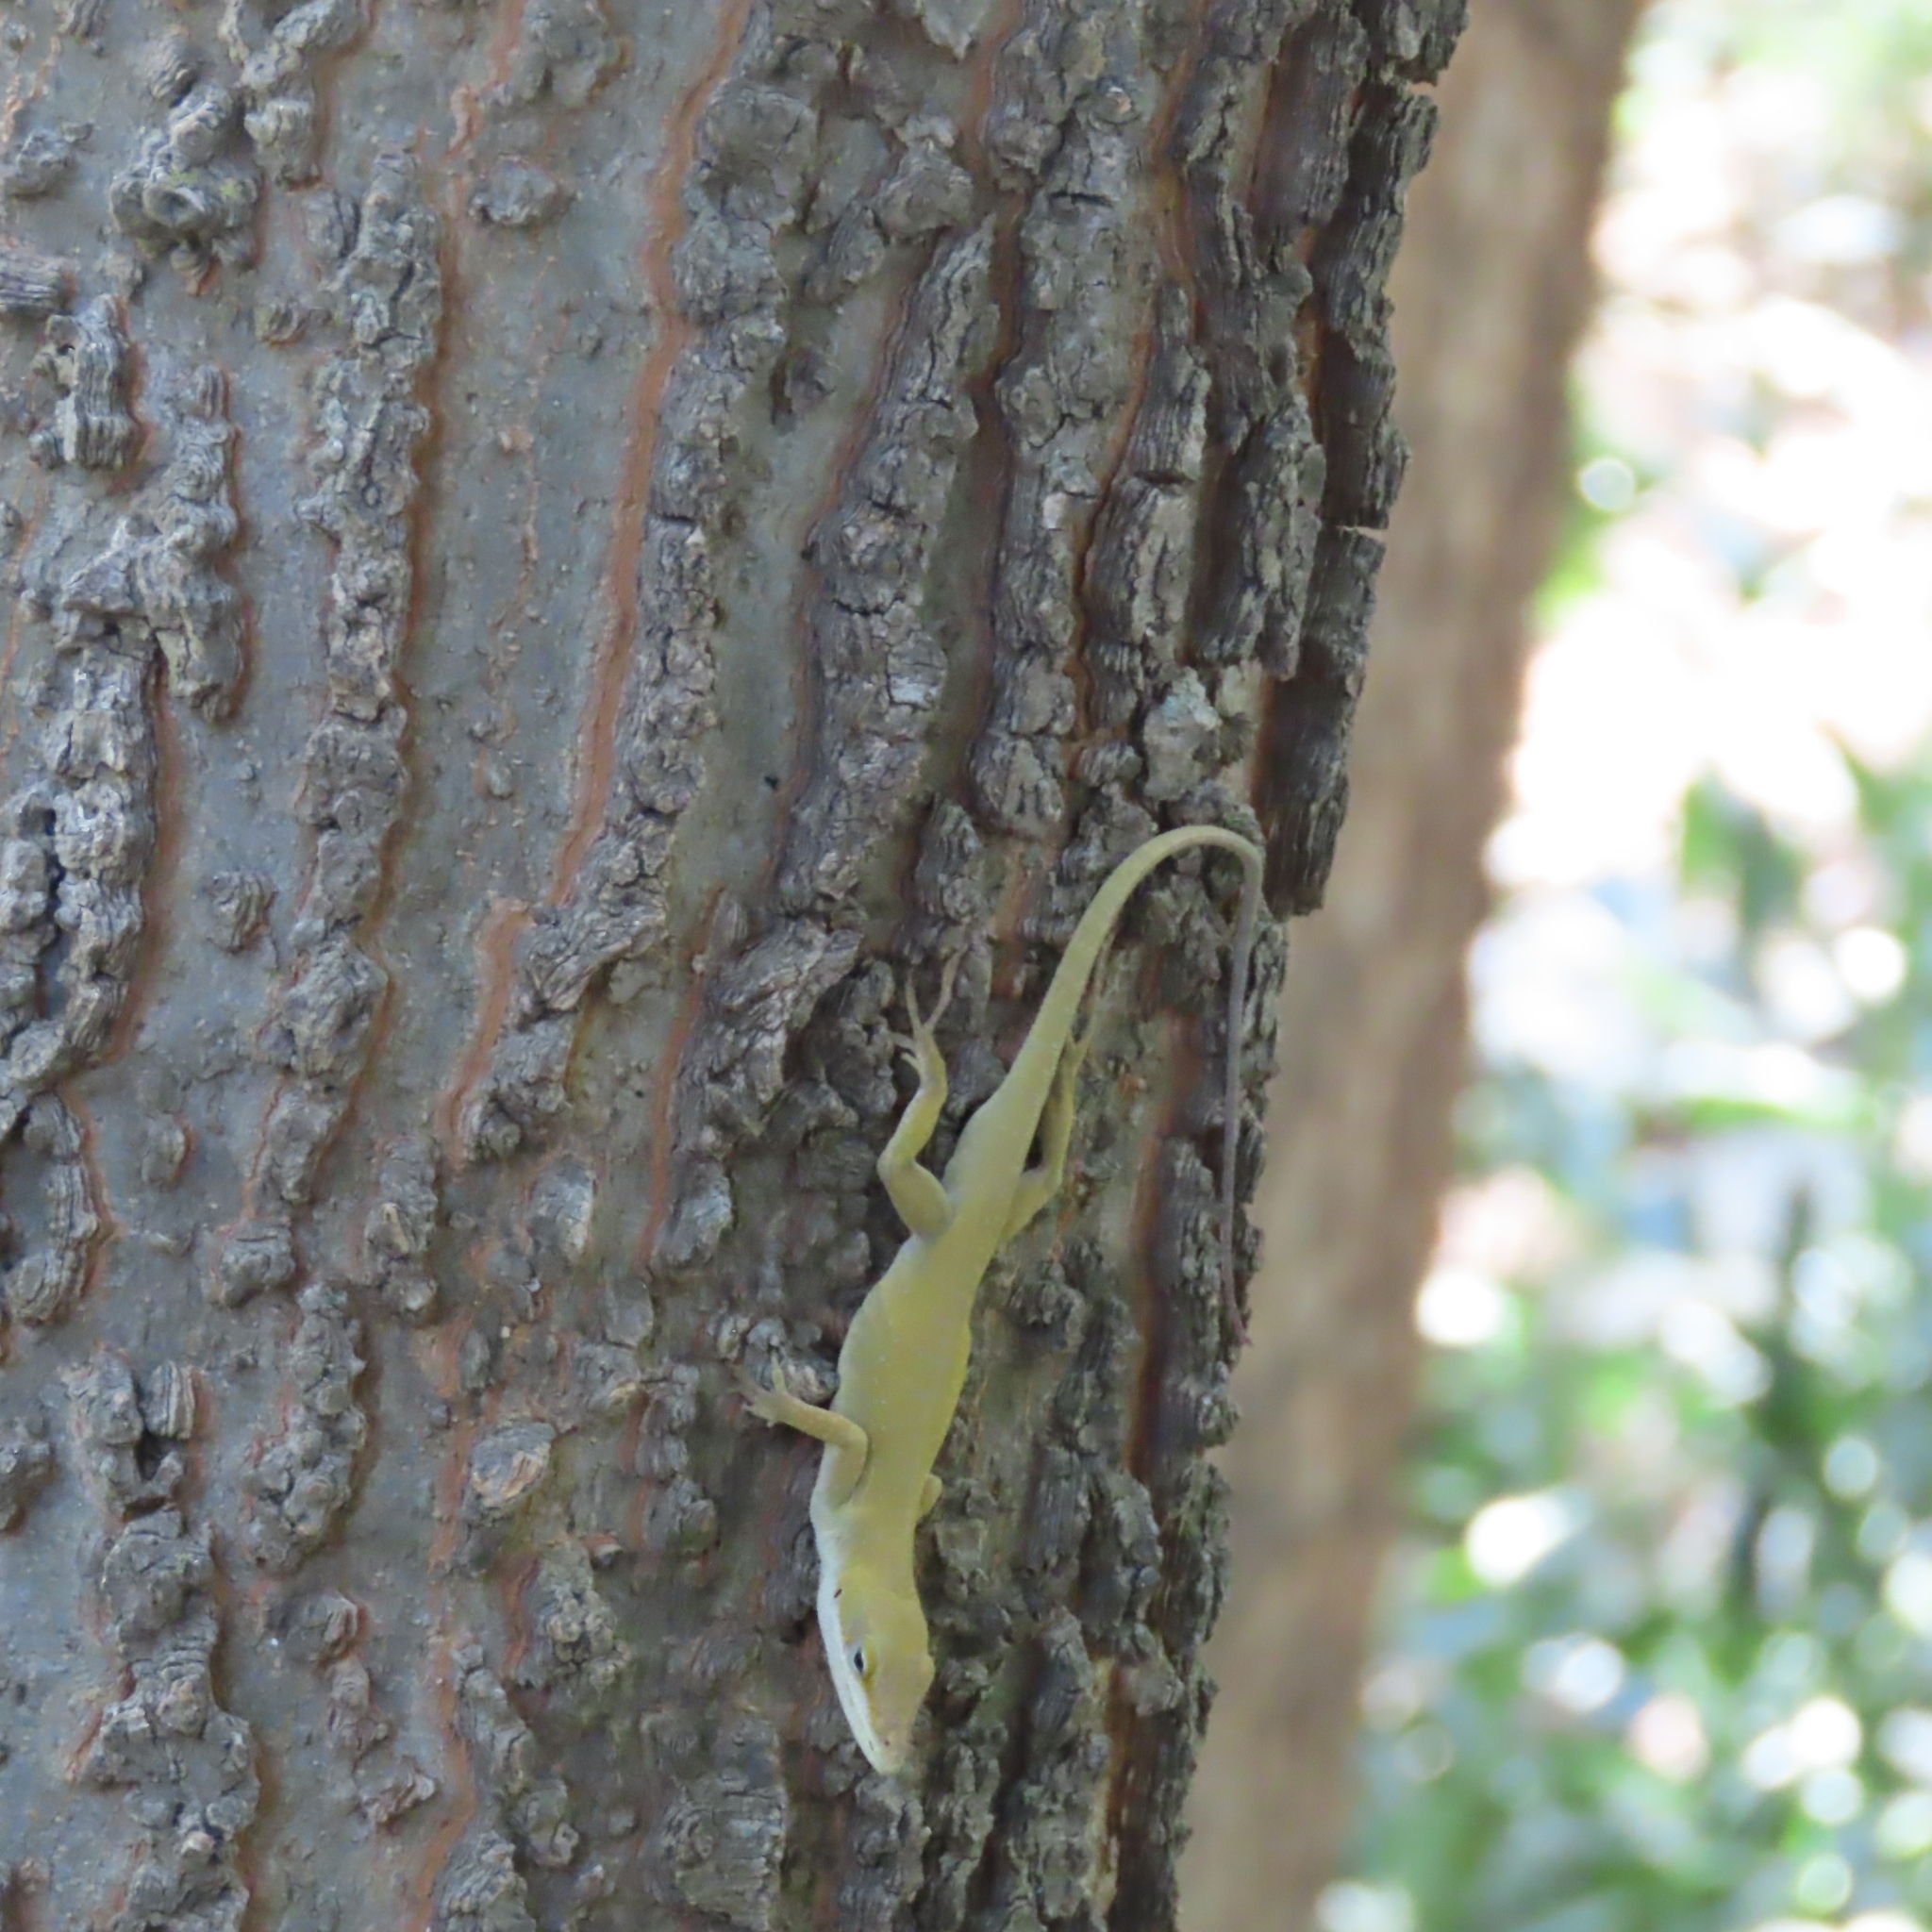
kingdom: Animalia
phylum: Chordata
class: Squamata
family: Dactyloidae
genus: Anolis
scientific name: Anolis carolinensis
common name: Green anole
